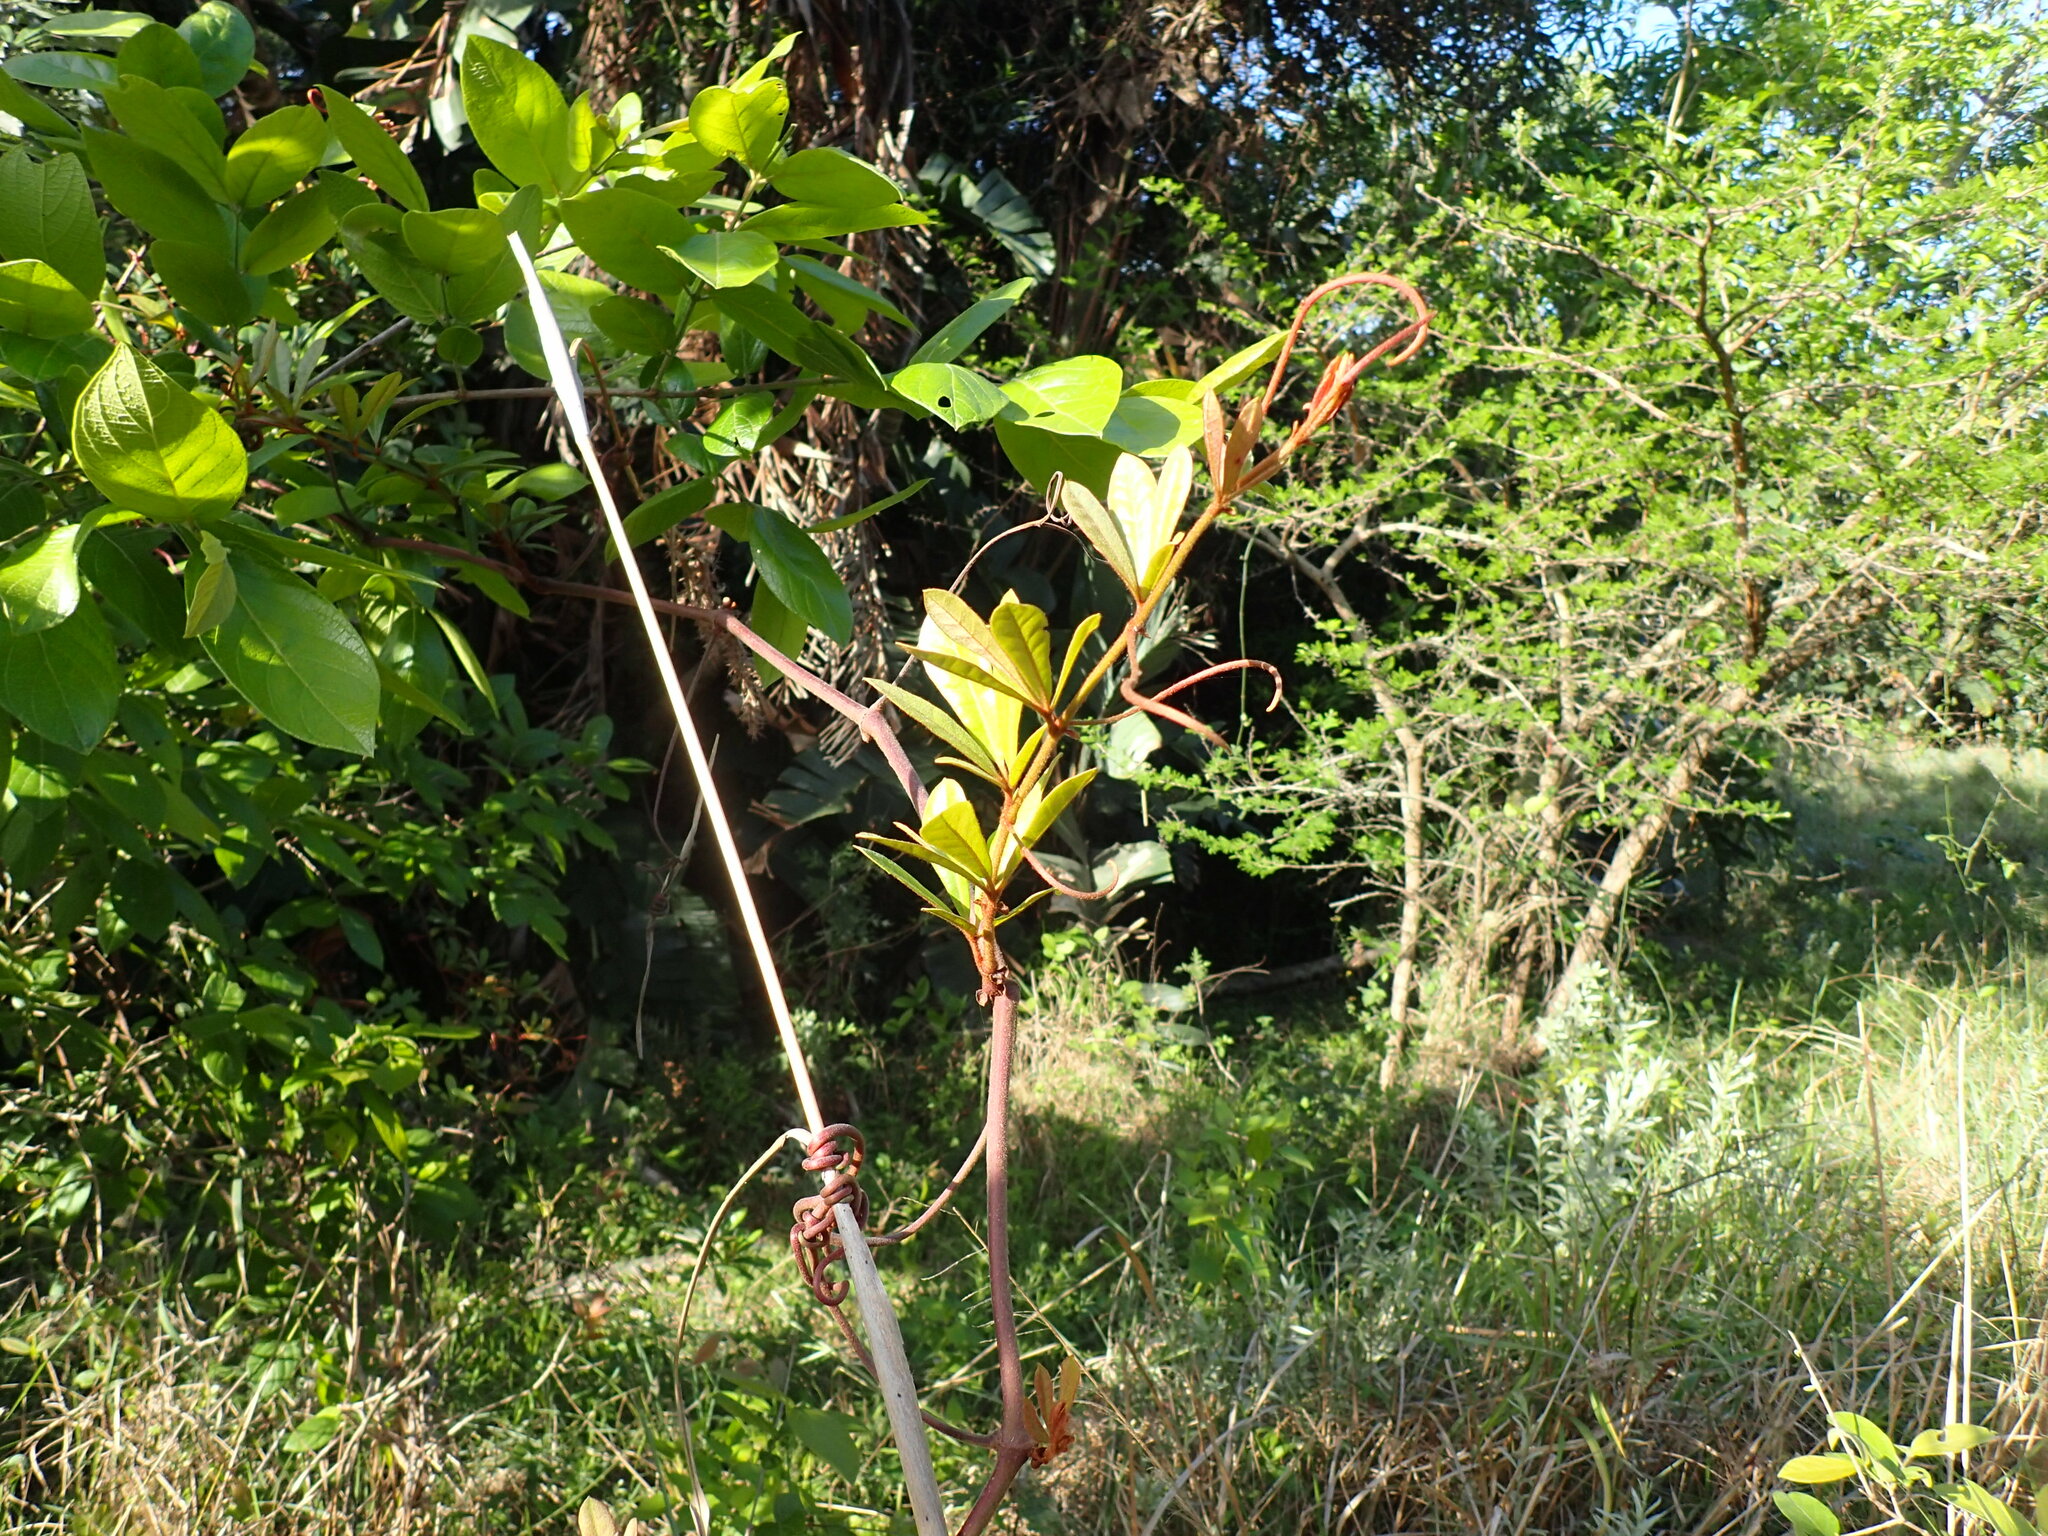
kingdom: Plantae
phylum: Tracheophyta
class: Magnoliopsida
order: Vitales
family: Vitaceae
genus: Rhoicissus
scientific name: Rhoicissus digitata
